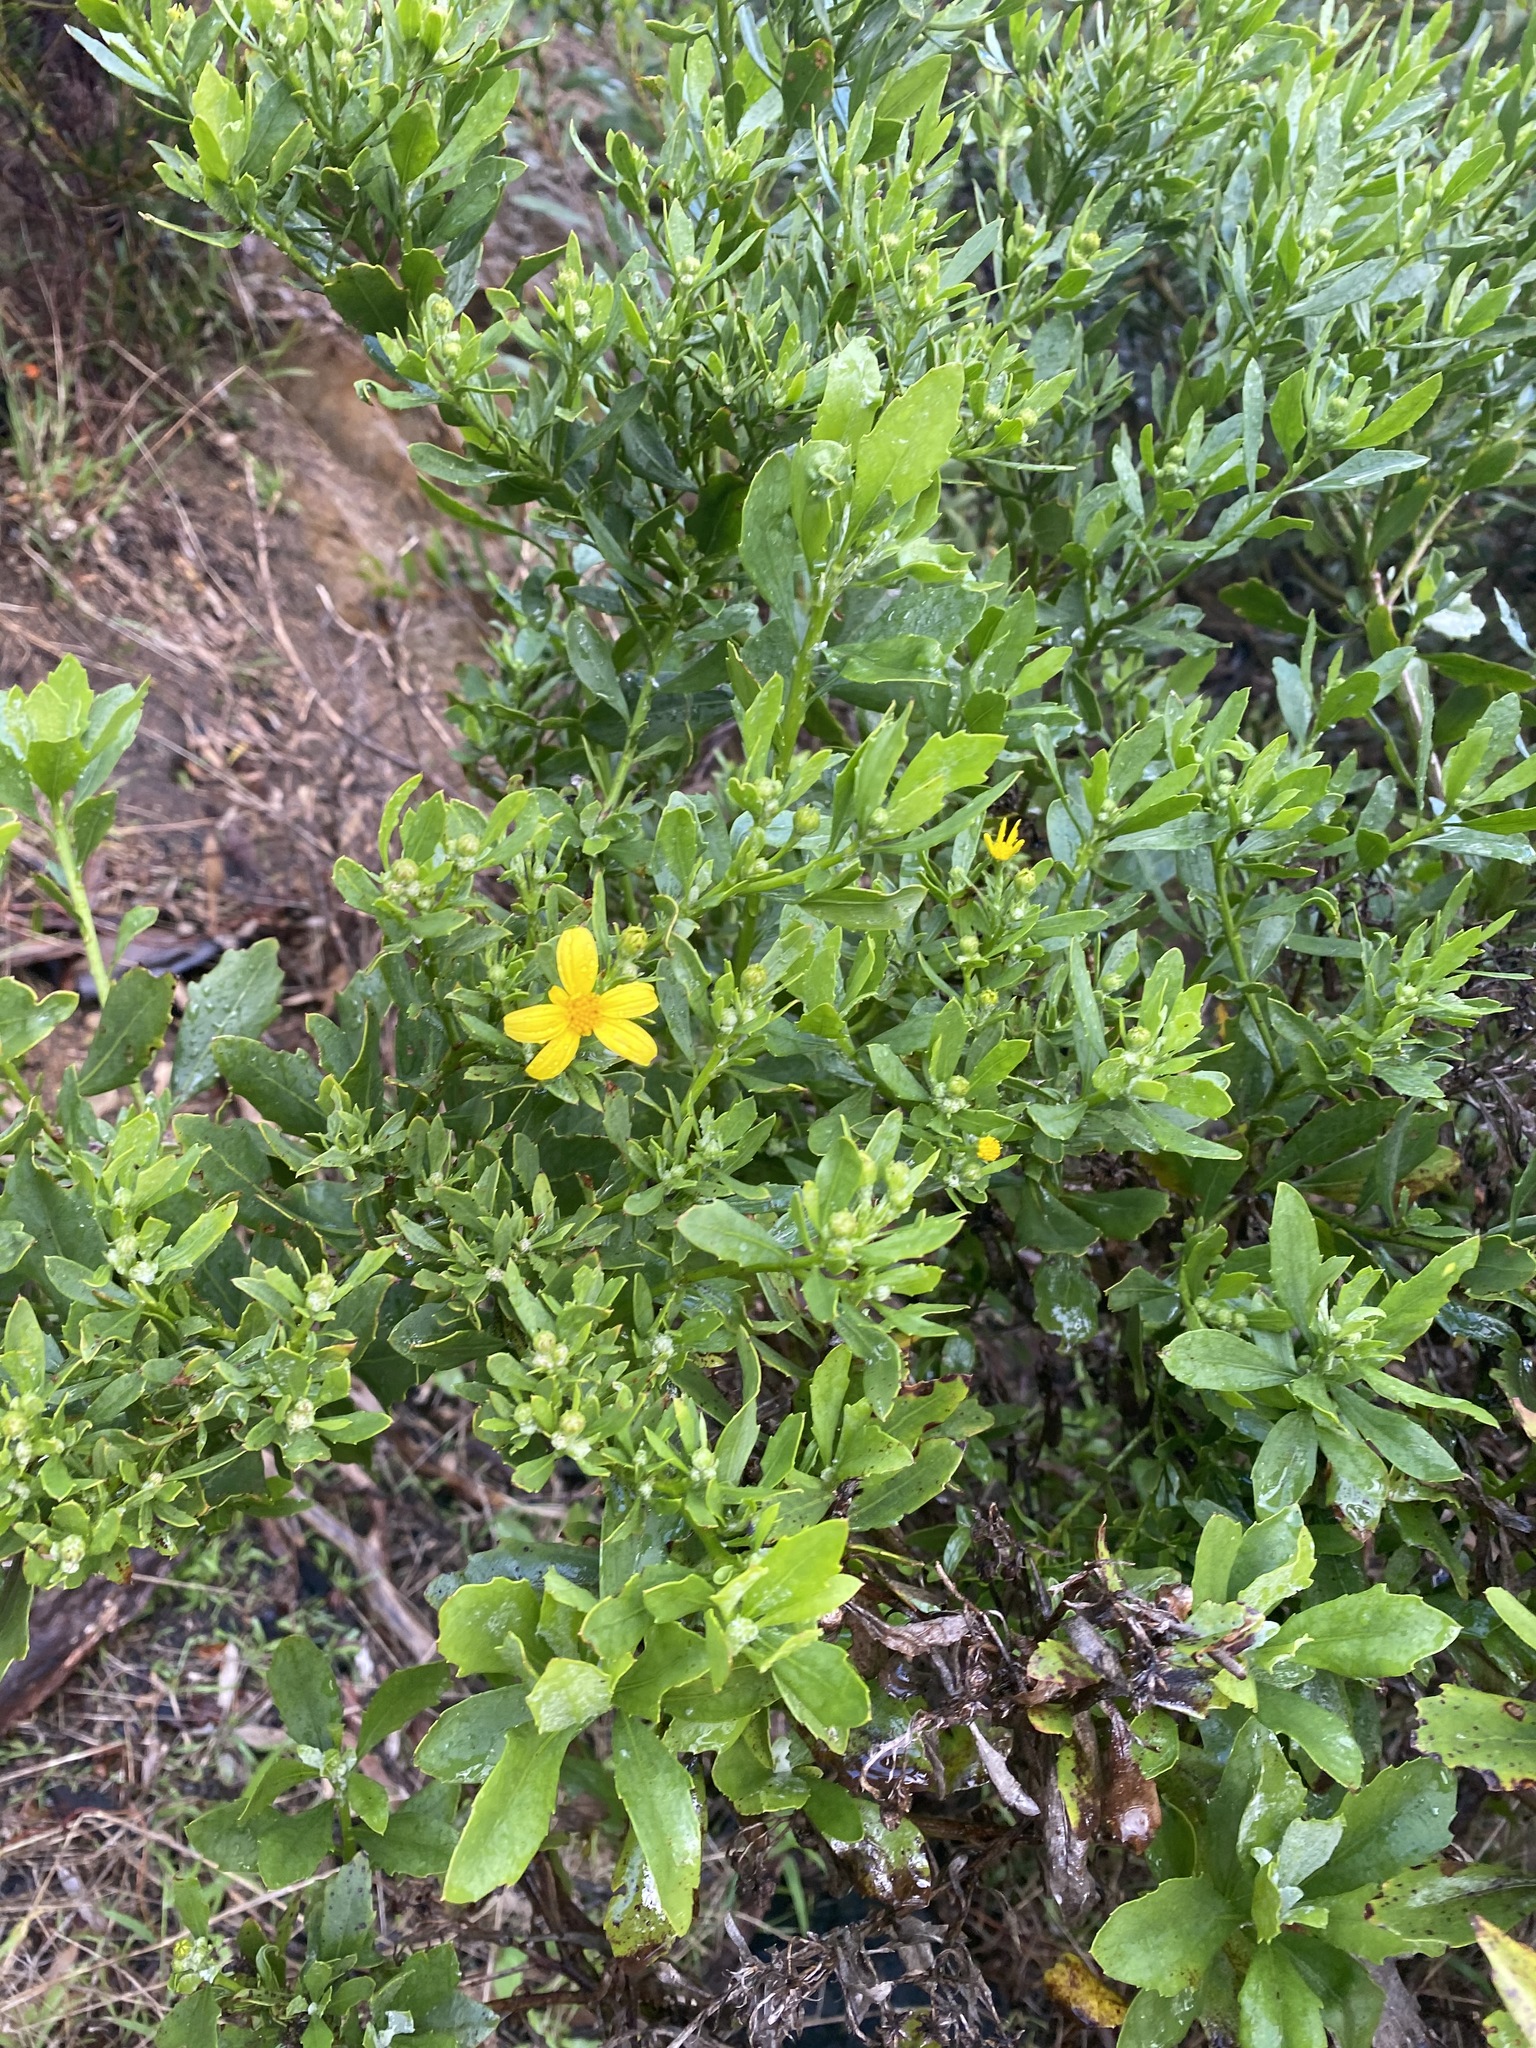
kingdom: Plantae
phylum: Tracheophyta
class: Magnoliopsida
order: Asterales
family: Asteraceae
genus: Osteospermum
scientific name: Osteospermum moniliferum
